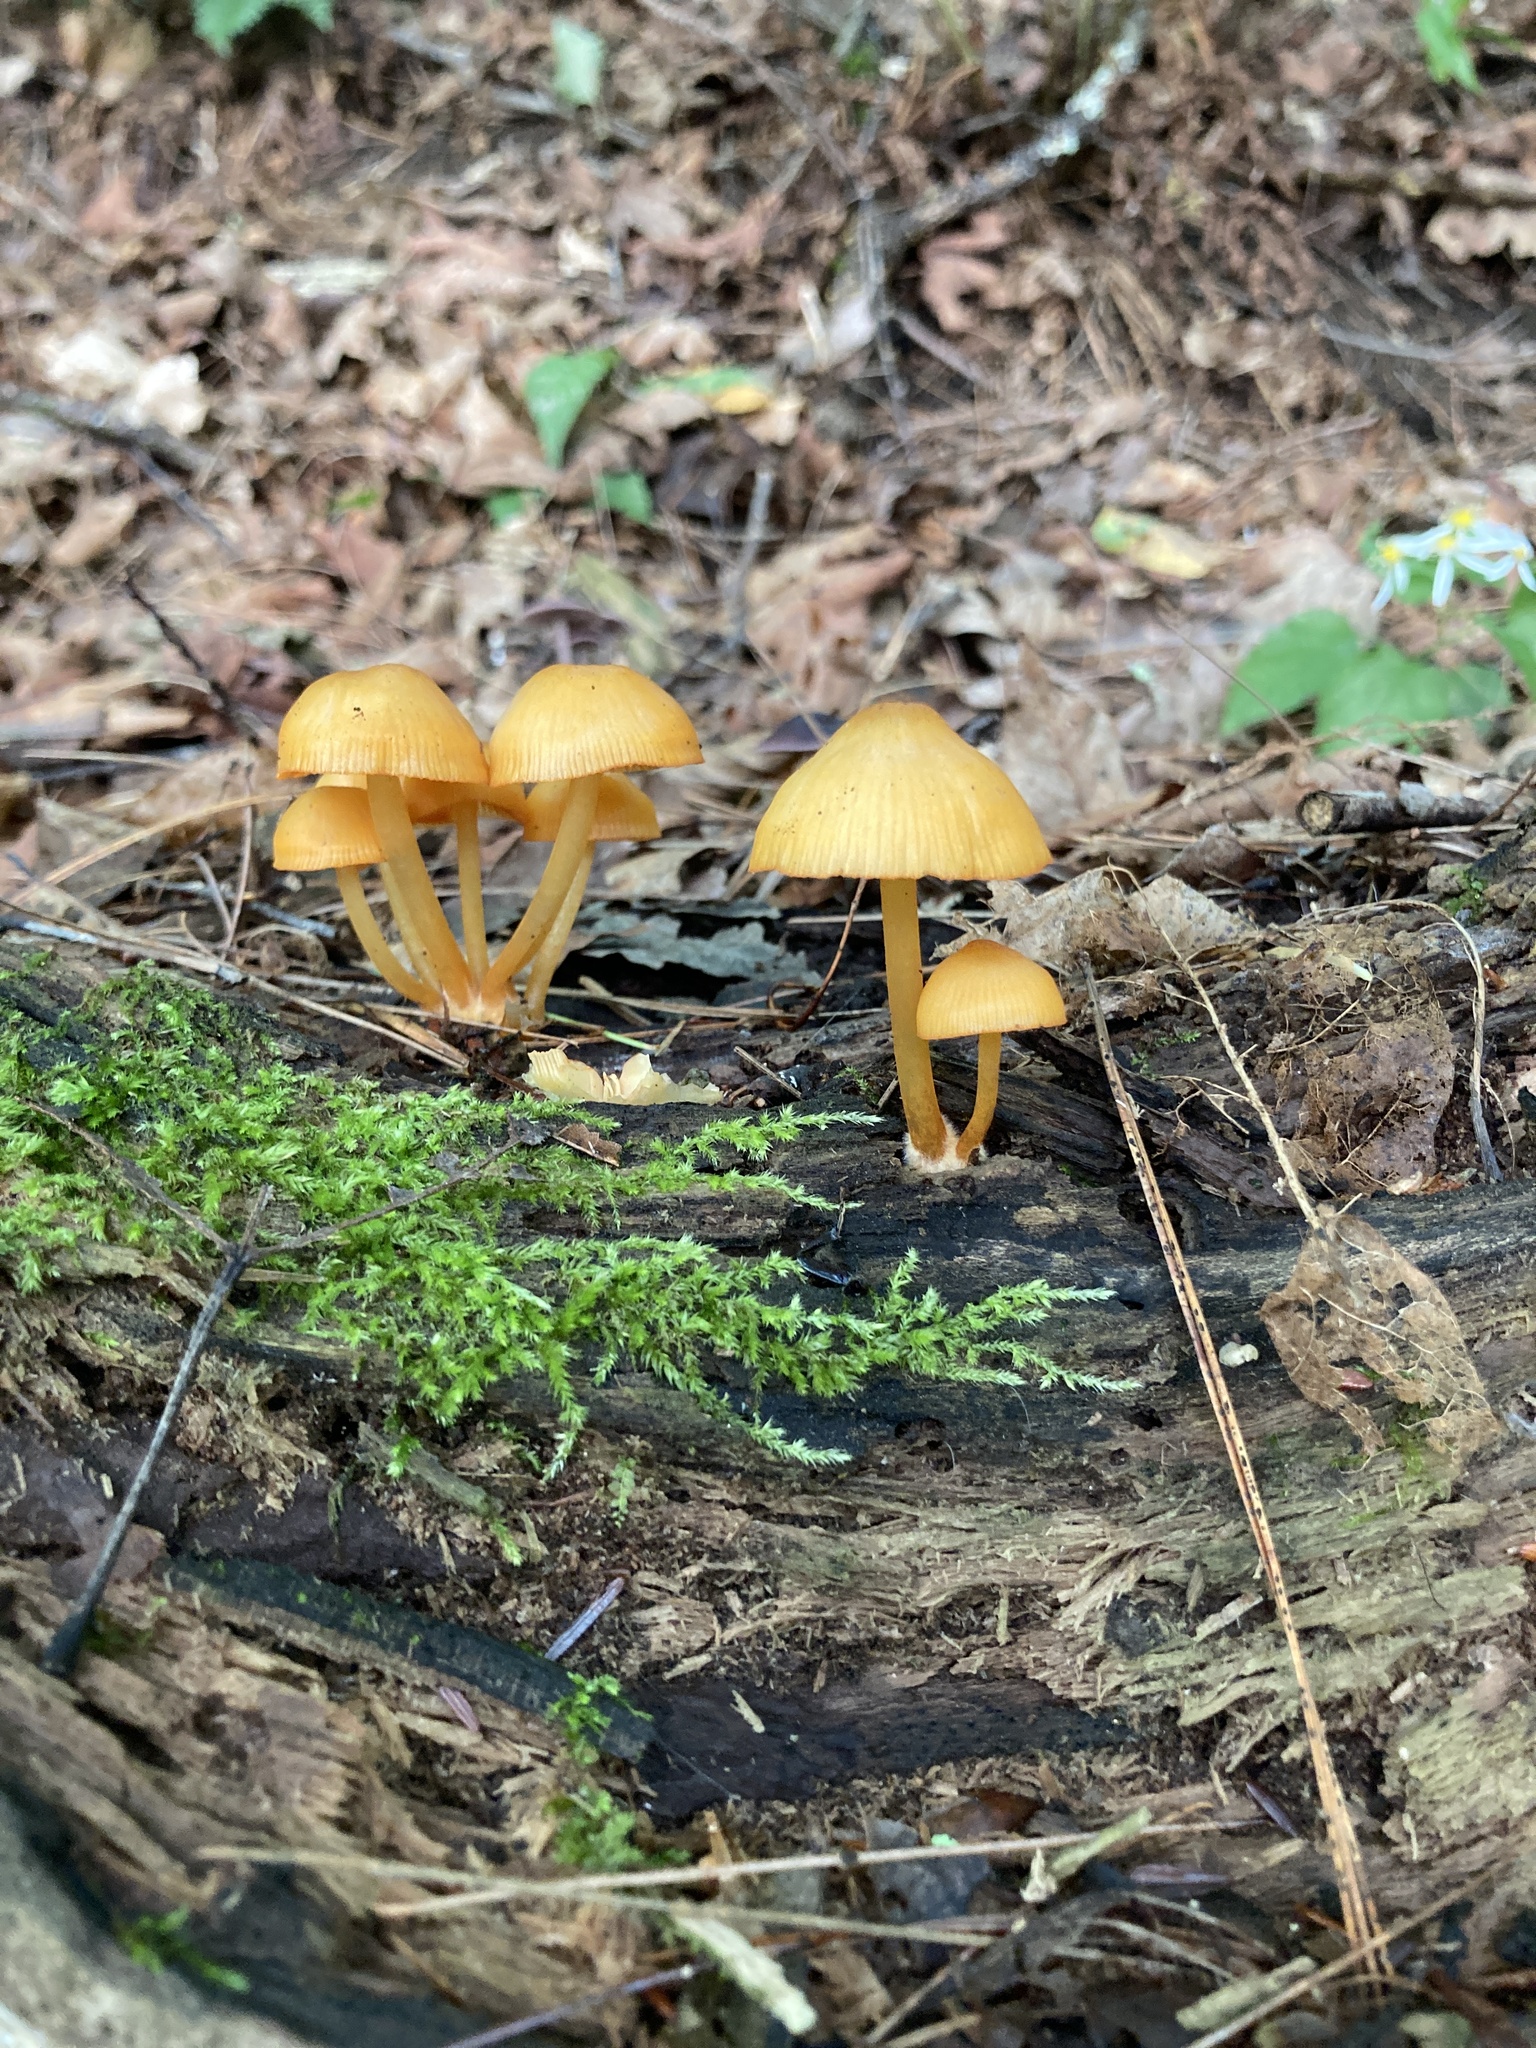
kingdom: Fungi
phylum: Basidiomycota
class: Agaricomycetes
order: Agaricales
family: Mycenaceae
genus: Mycena
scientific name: Mycena leaiana
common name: Orange mycena
